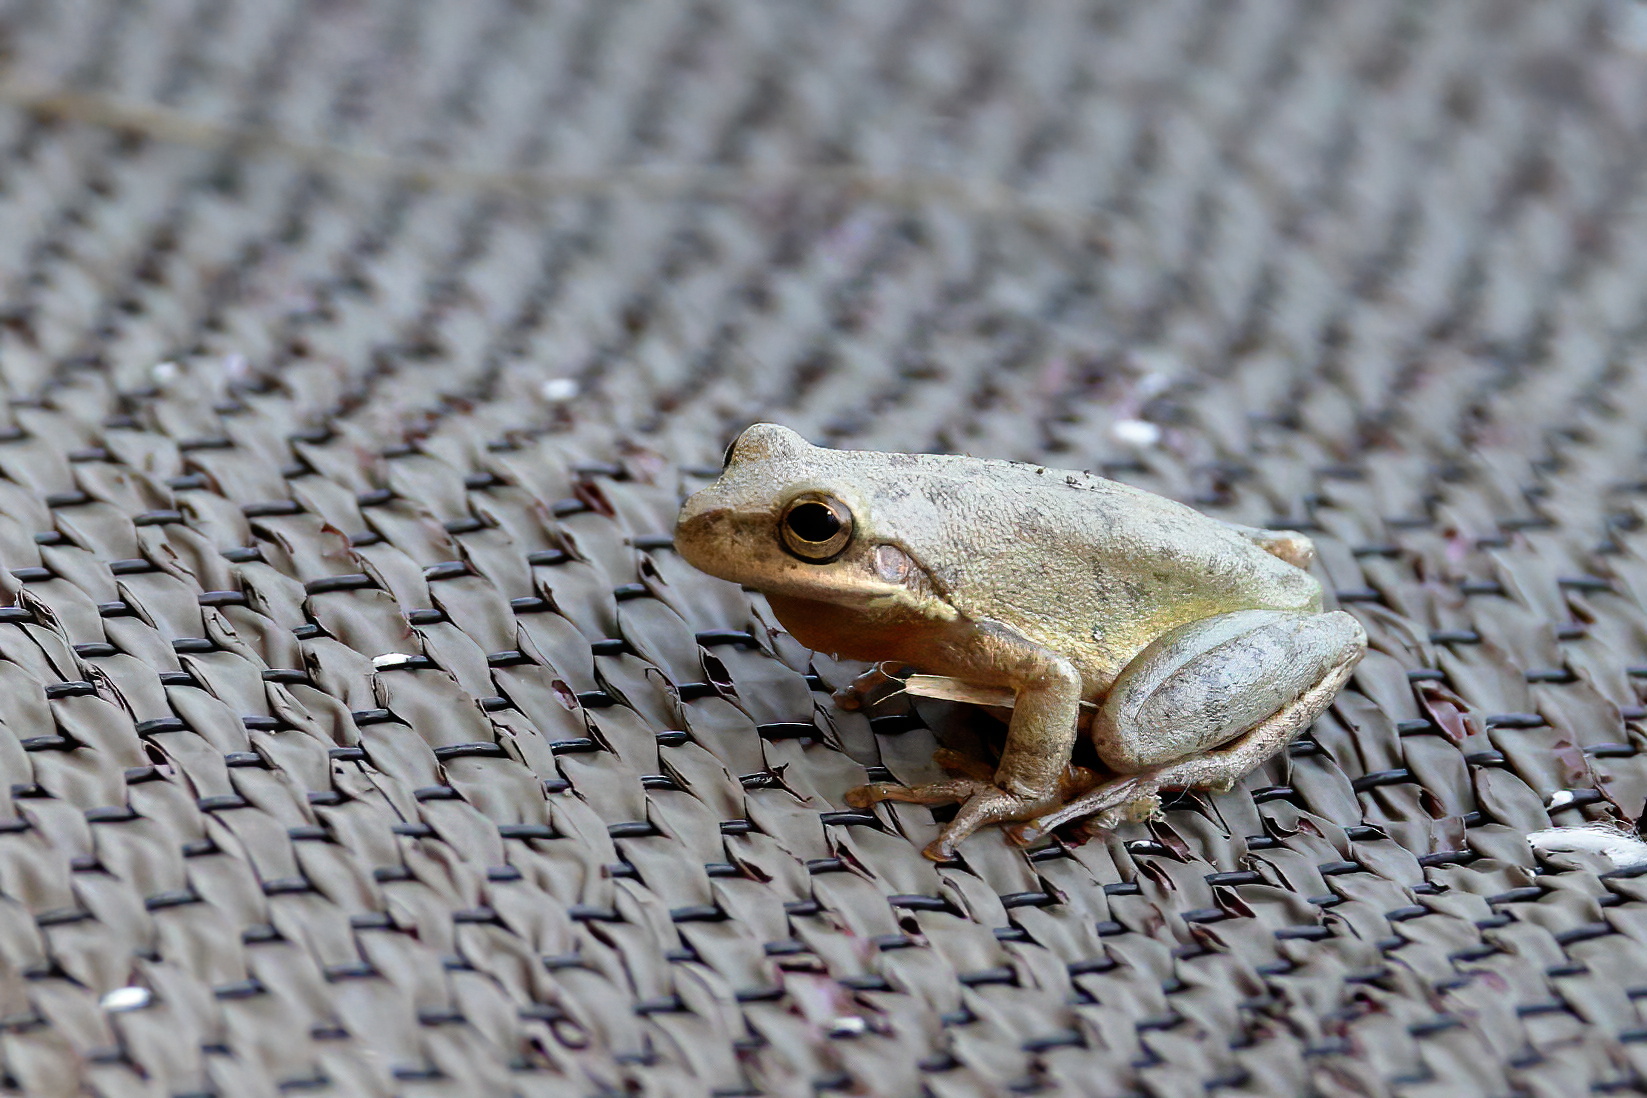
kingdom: Animalia
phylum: Chordata
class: Amphibia
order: Anura
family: Hylidae
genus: Dryophytes
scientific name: Dryophytes squirellus
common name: Squirrel treefrog
